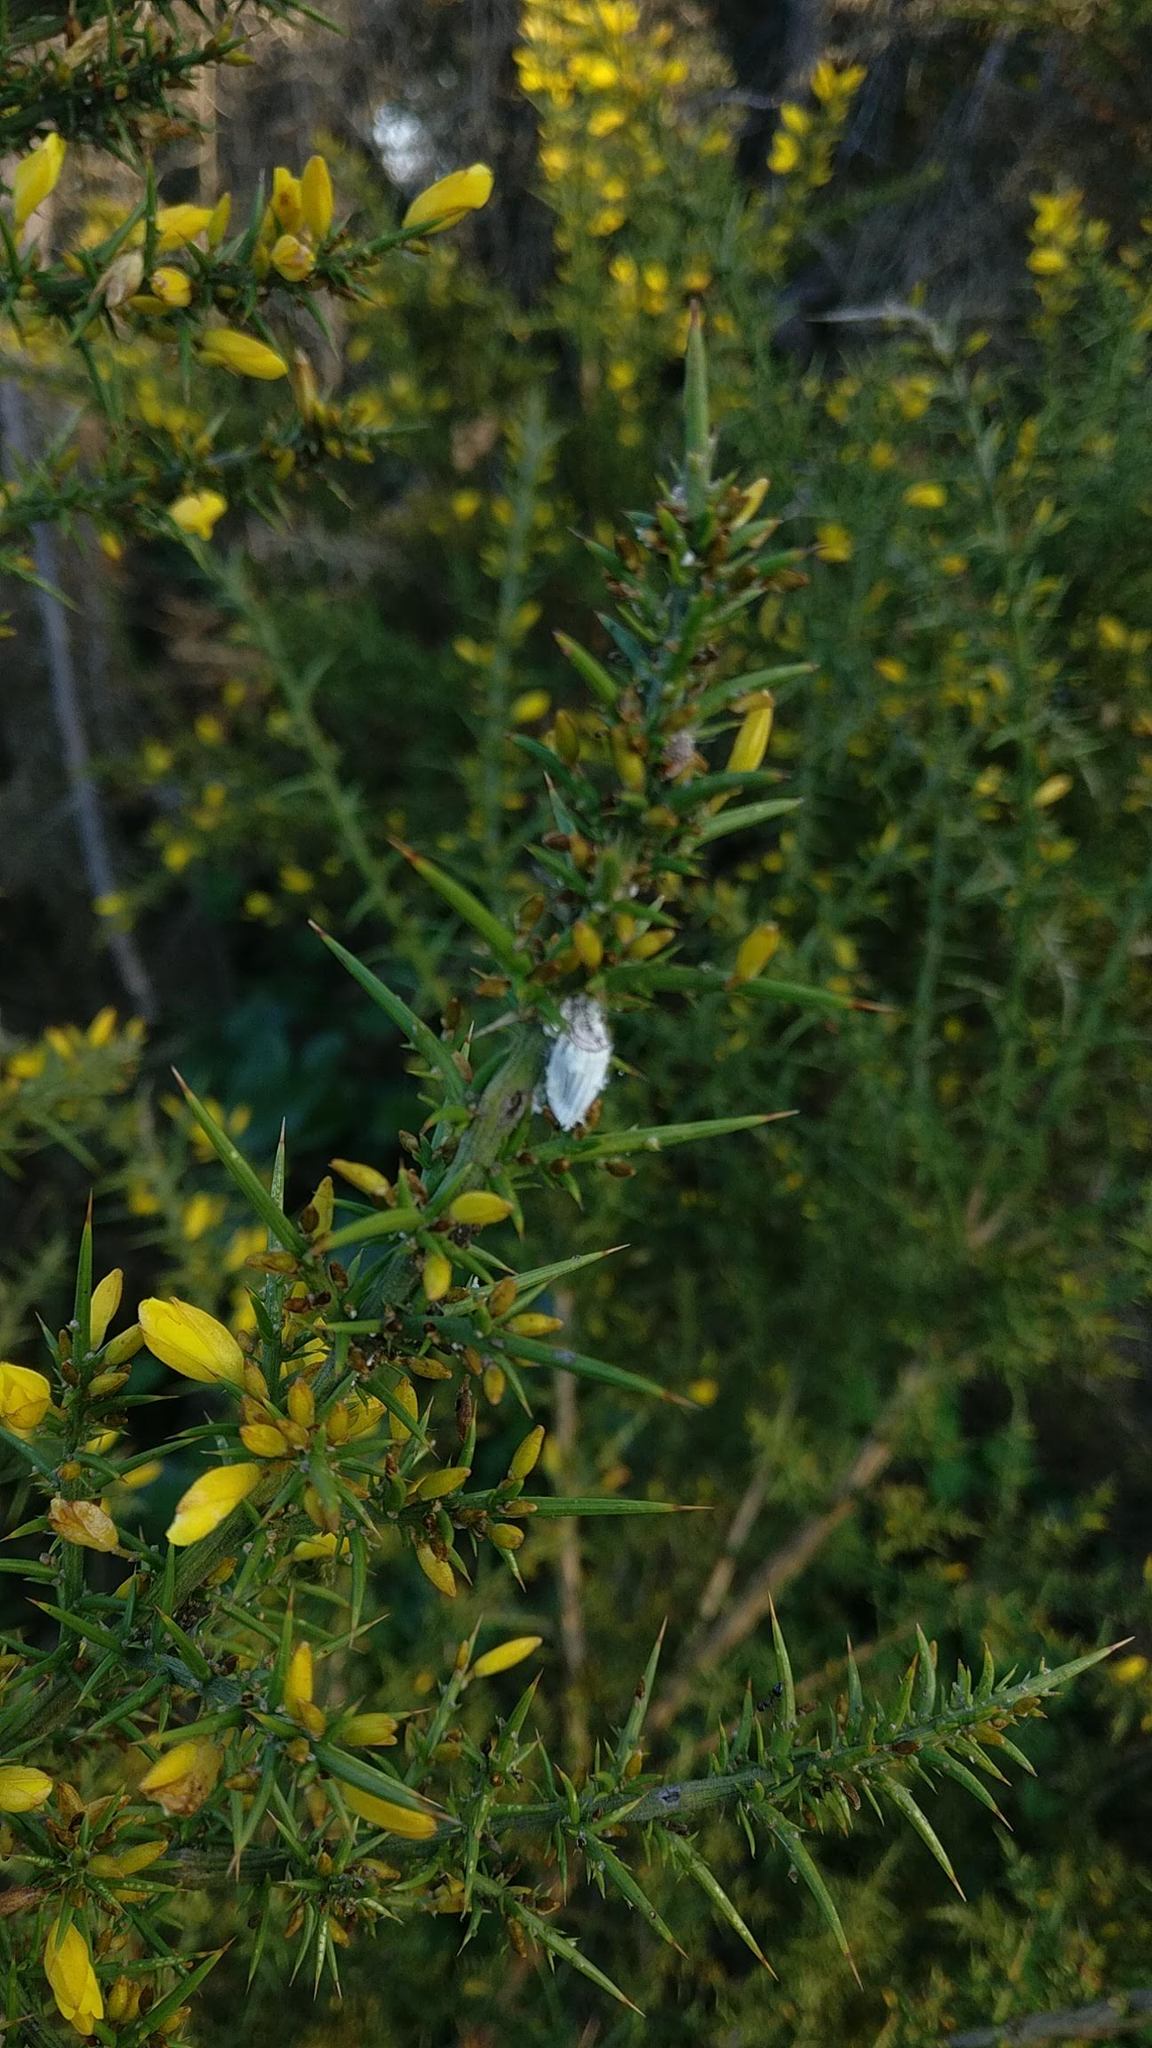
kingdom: Animalia
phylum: Arthropoda
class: Insecta
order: Hemiptera
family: Margarodidae
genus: Icerya
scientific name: Icerya purchasi
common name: Cottony cushion scale
